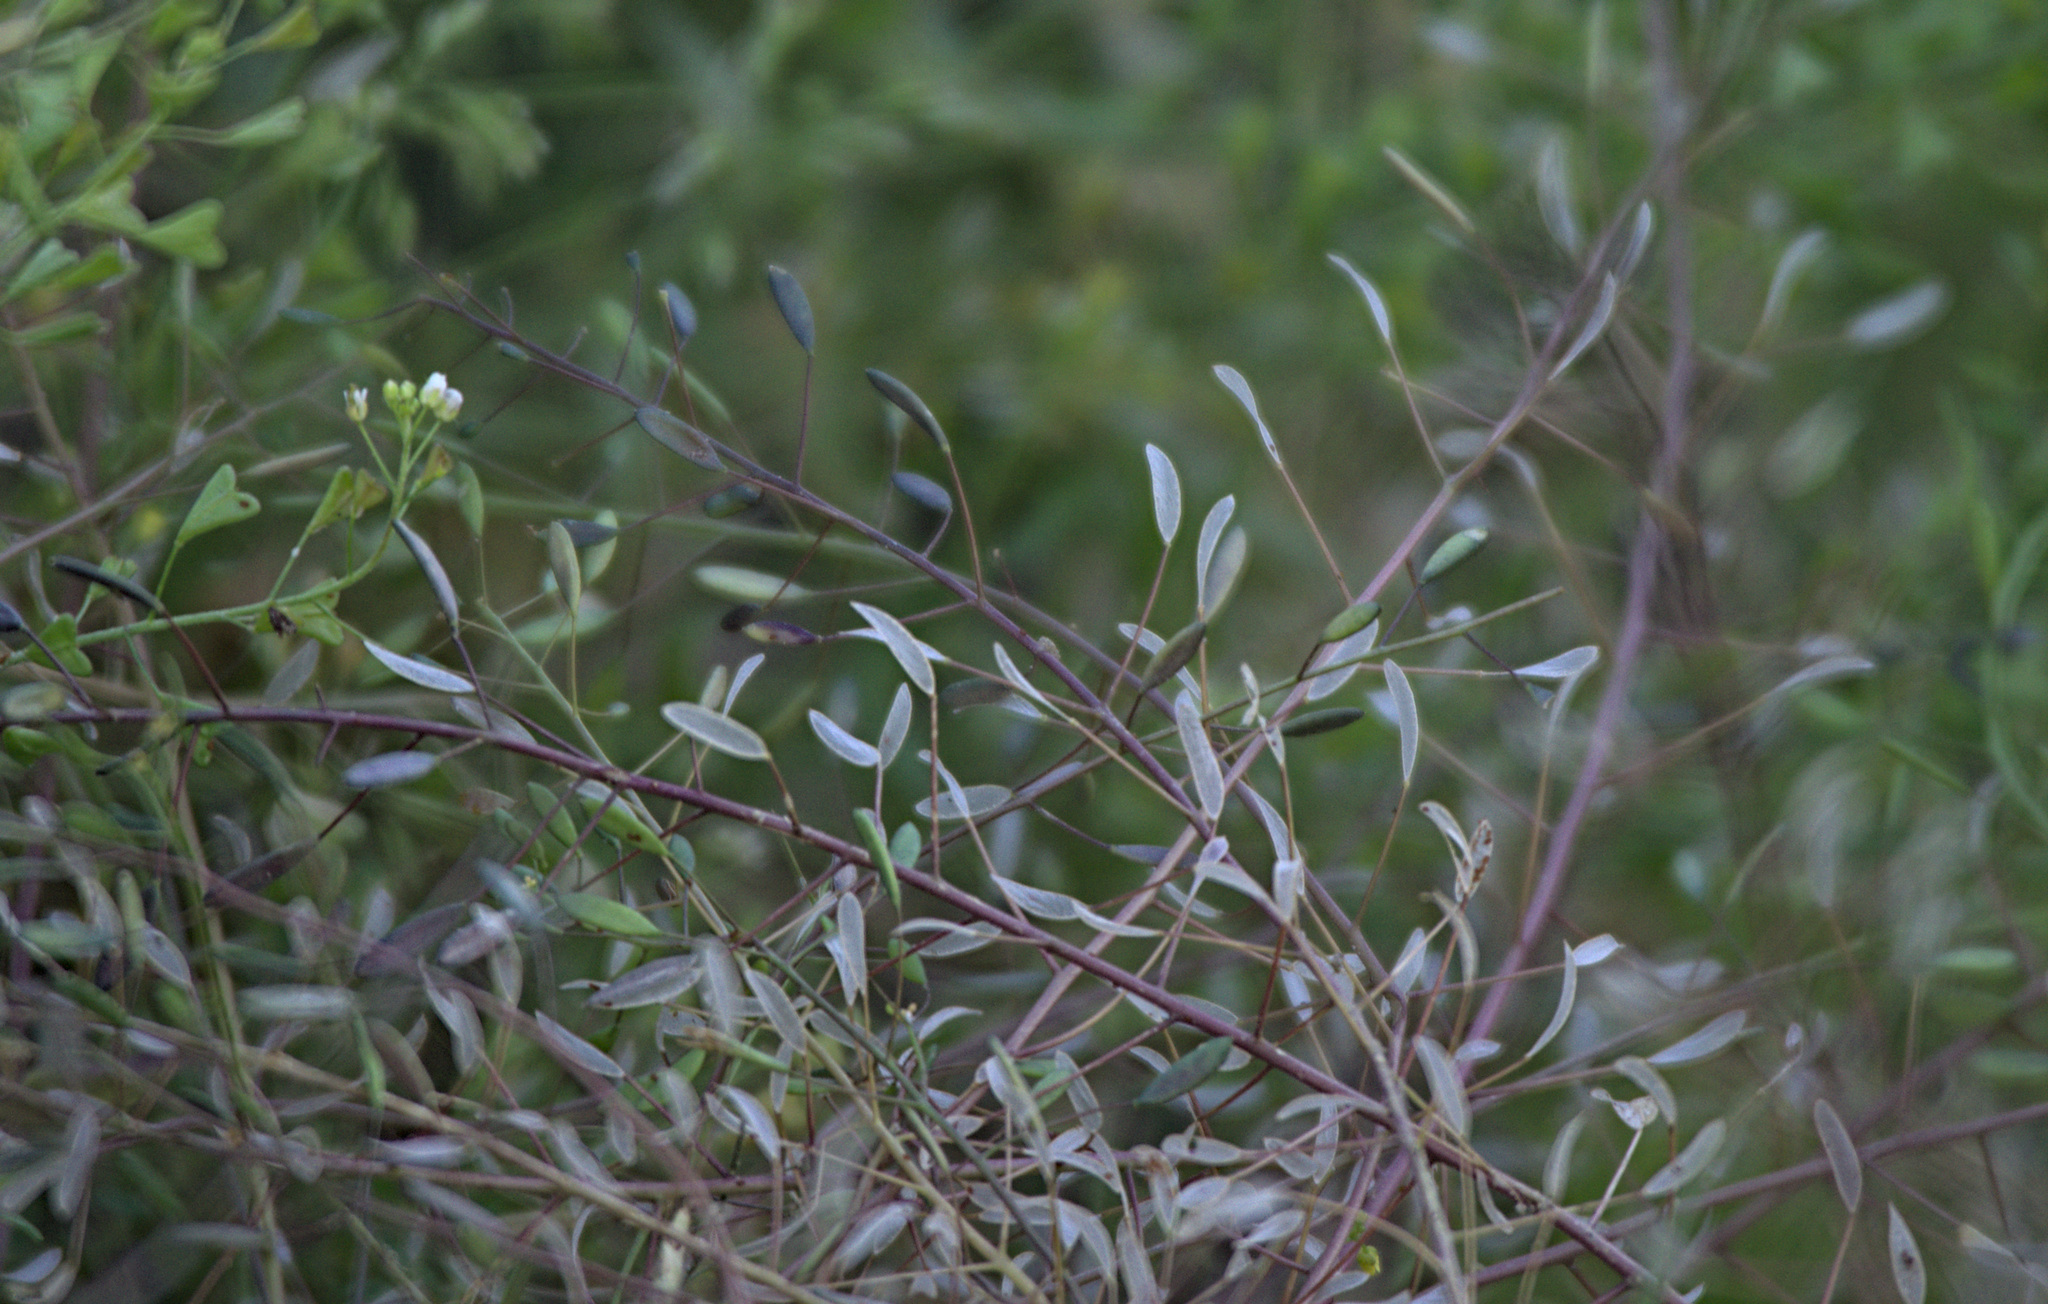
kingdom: Plantae
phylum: Tracheophyta
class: Magnoliopsida
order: Brassicales
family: Brassicaceae
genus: Draba
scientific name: Draba nemorosa
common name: Wood whitlow-grass
